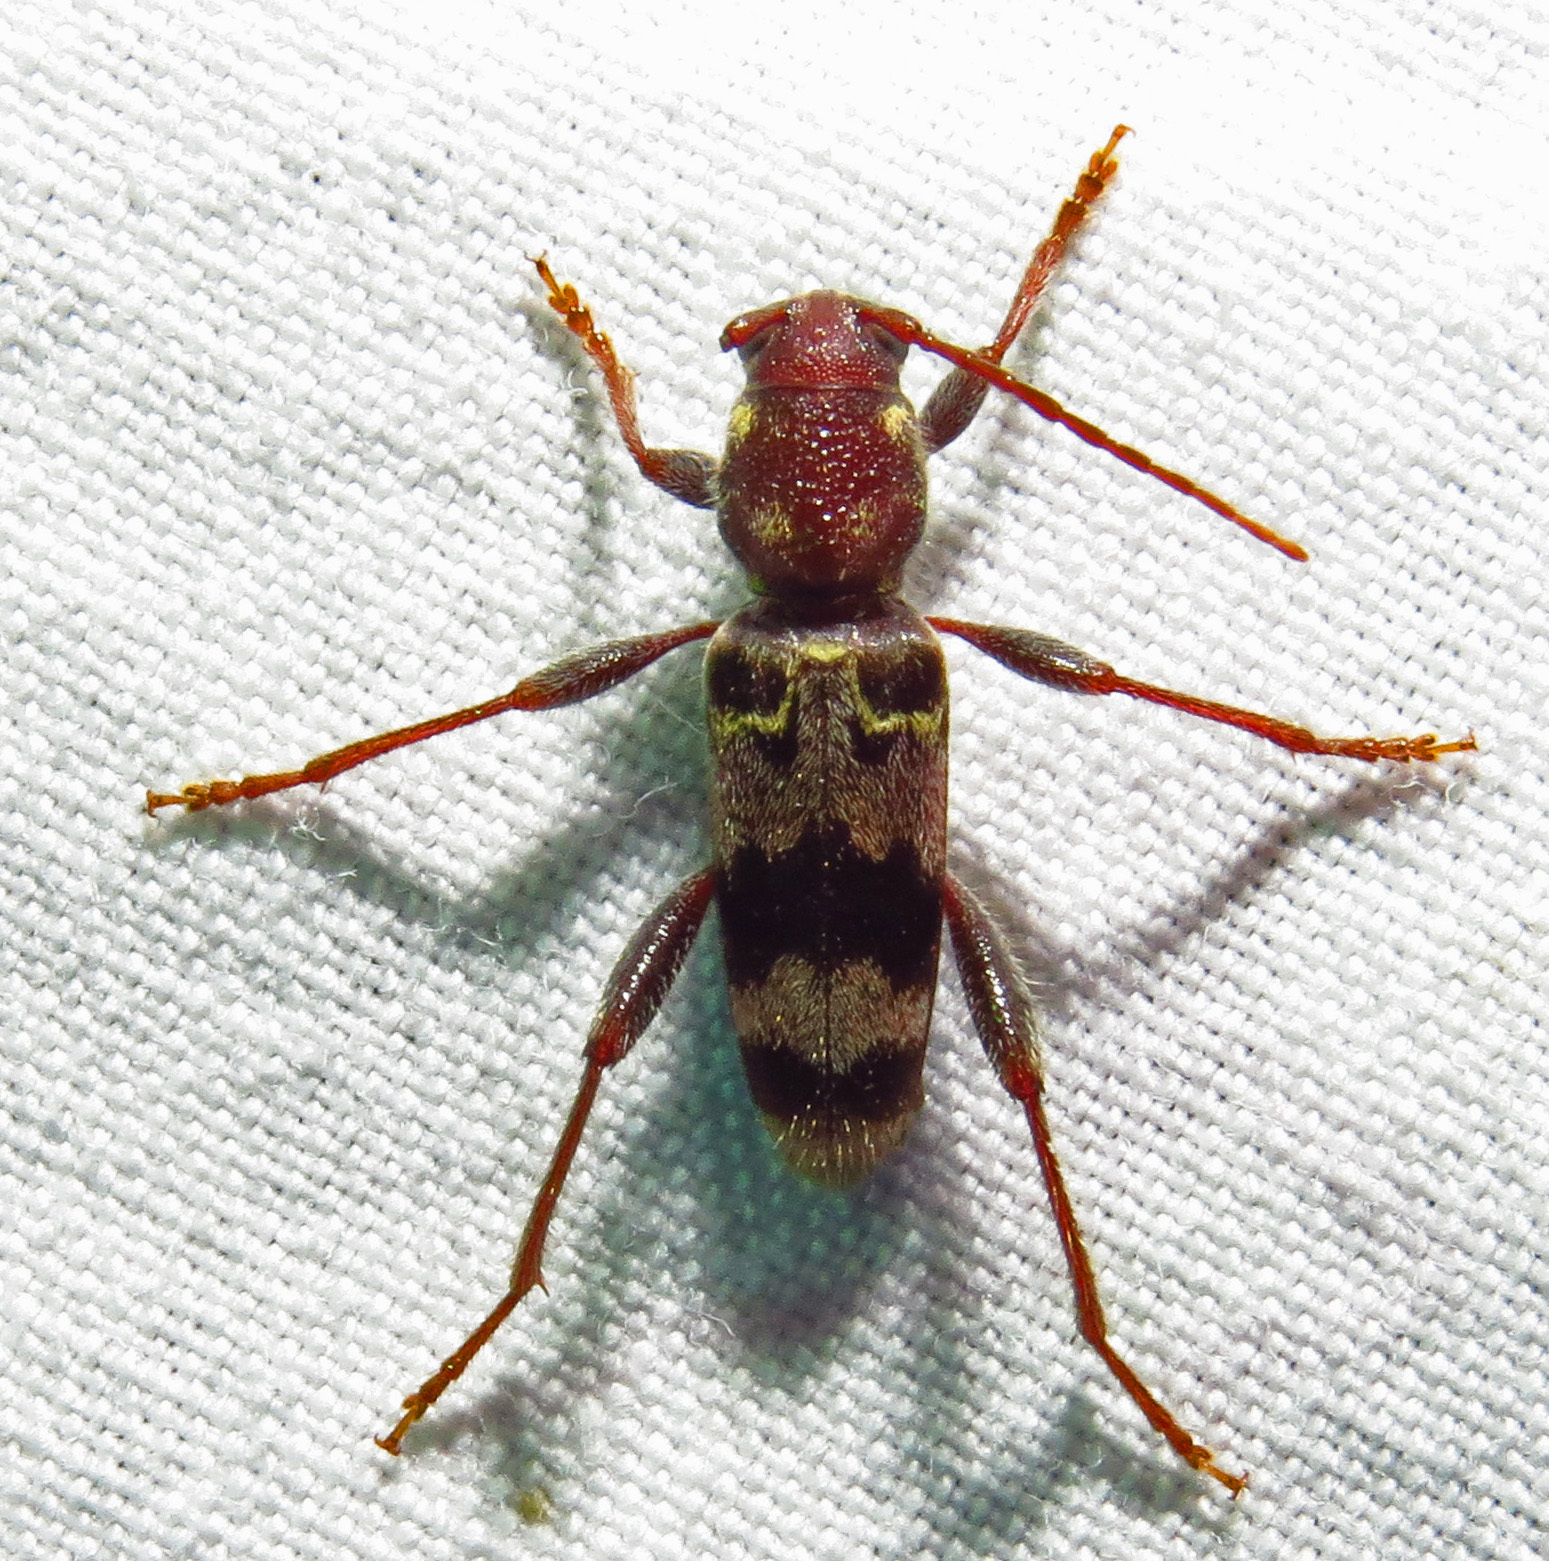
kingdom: Animalia
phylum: Arthropoda
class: Insecta
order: Coleoptera
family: Cerambycidae
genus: Xylotrechus
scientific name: Xylotrechus colonus
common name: Long-horned beetle
